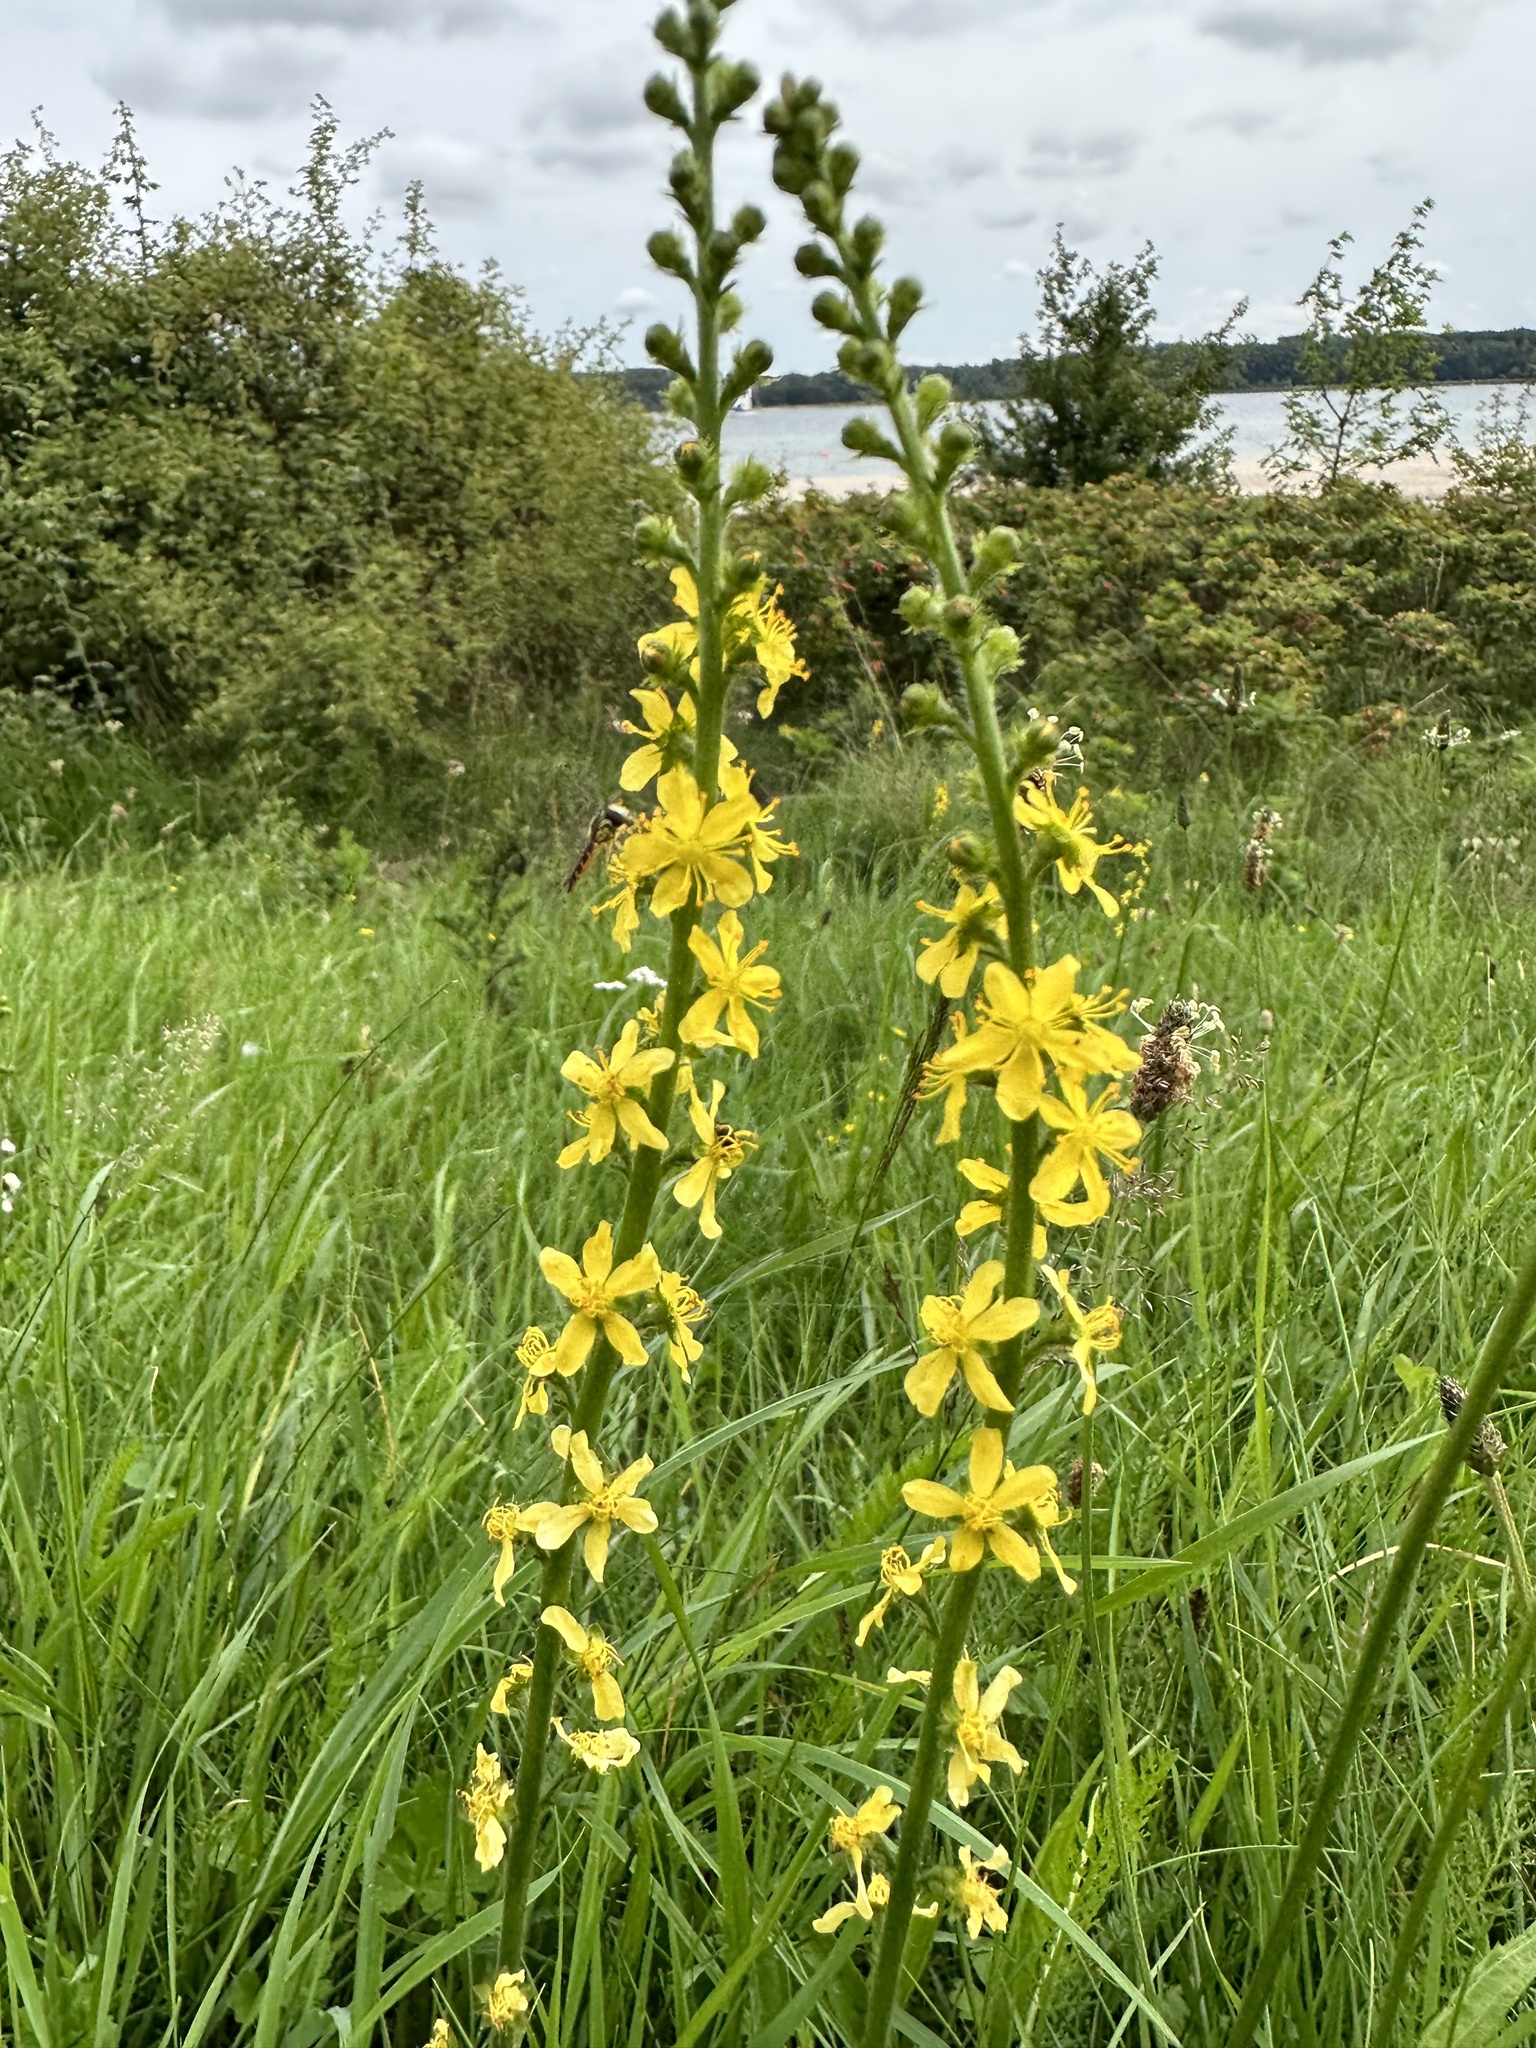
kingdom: Plantae
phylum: Tracheophyta
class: Magnoliopsida
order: Rosales
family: Rosaceae
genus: Agrimonia
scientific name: Agrimonia eupatoria
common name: Agrimony
